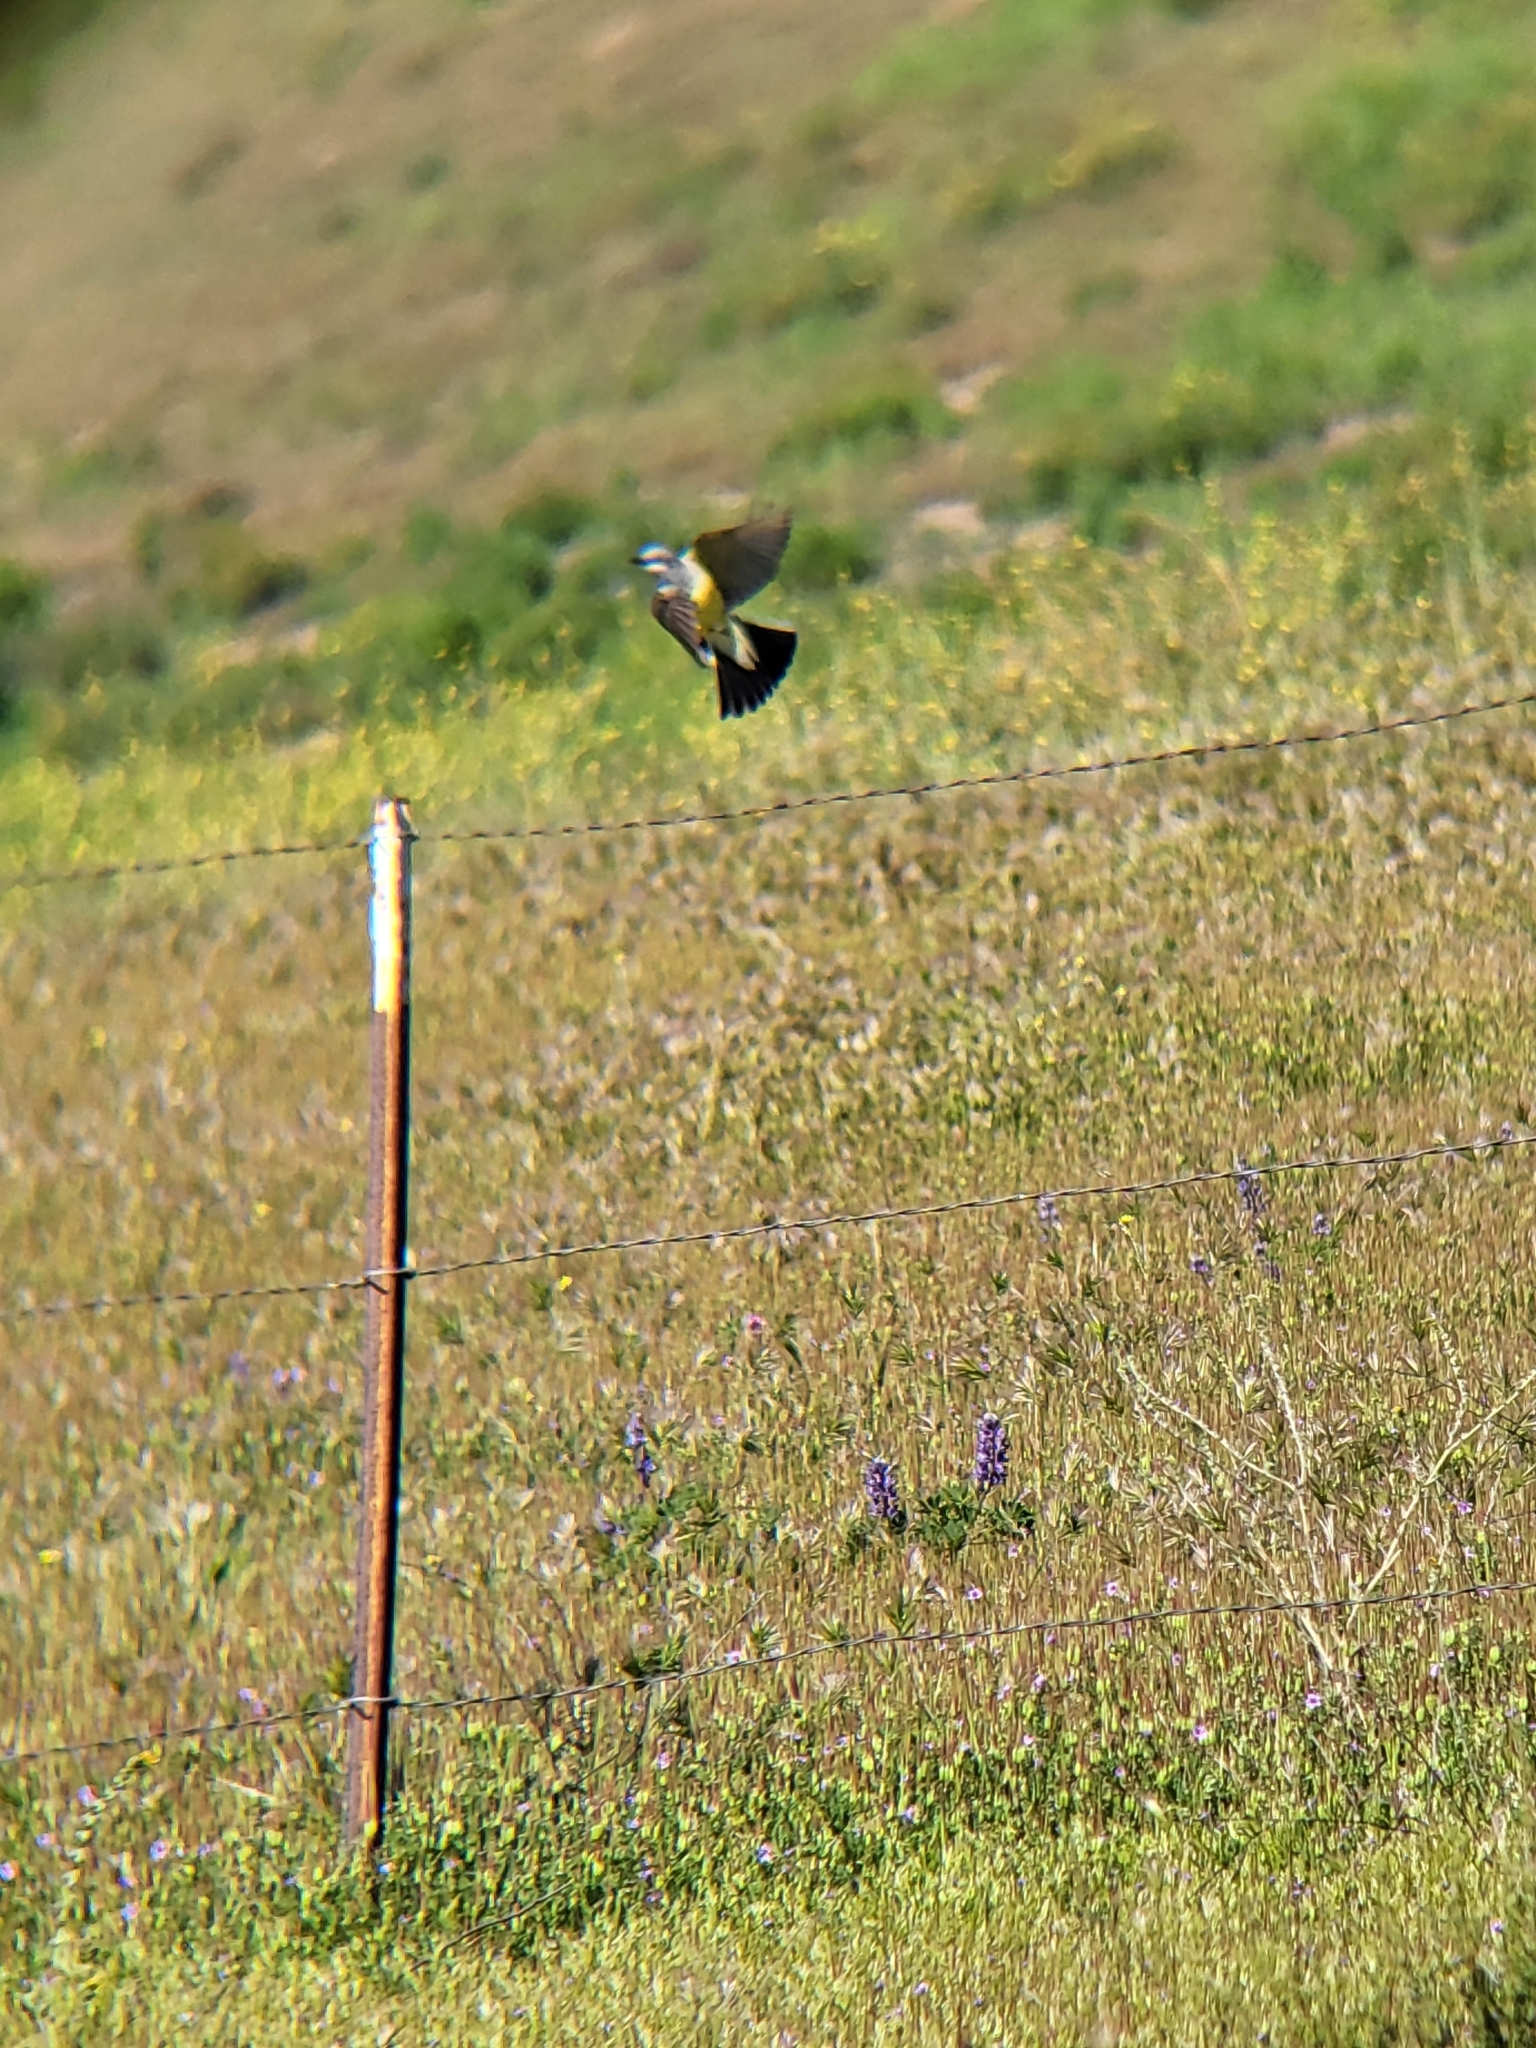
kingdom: Animalia
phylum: Chordata
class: Aves
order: Passeriformes
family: Tyrannidae
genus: Tyrannus
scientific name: Tyrannus verticalis
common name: Western kingbird
